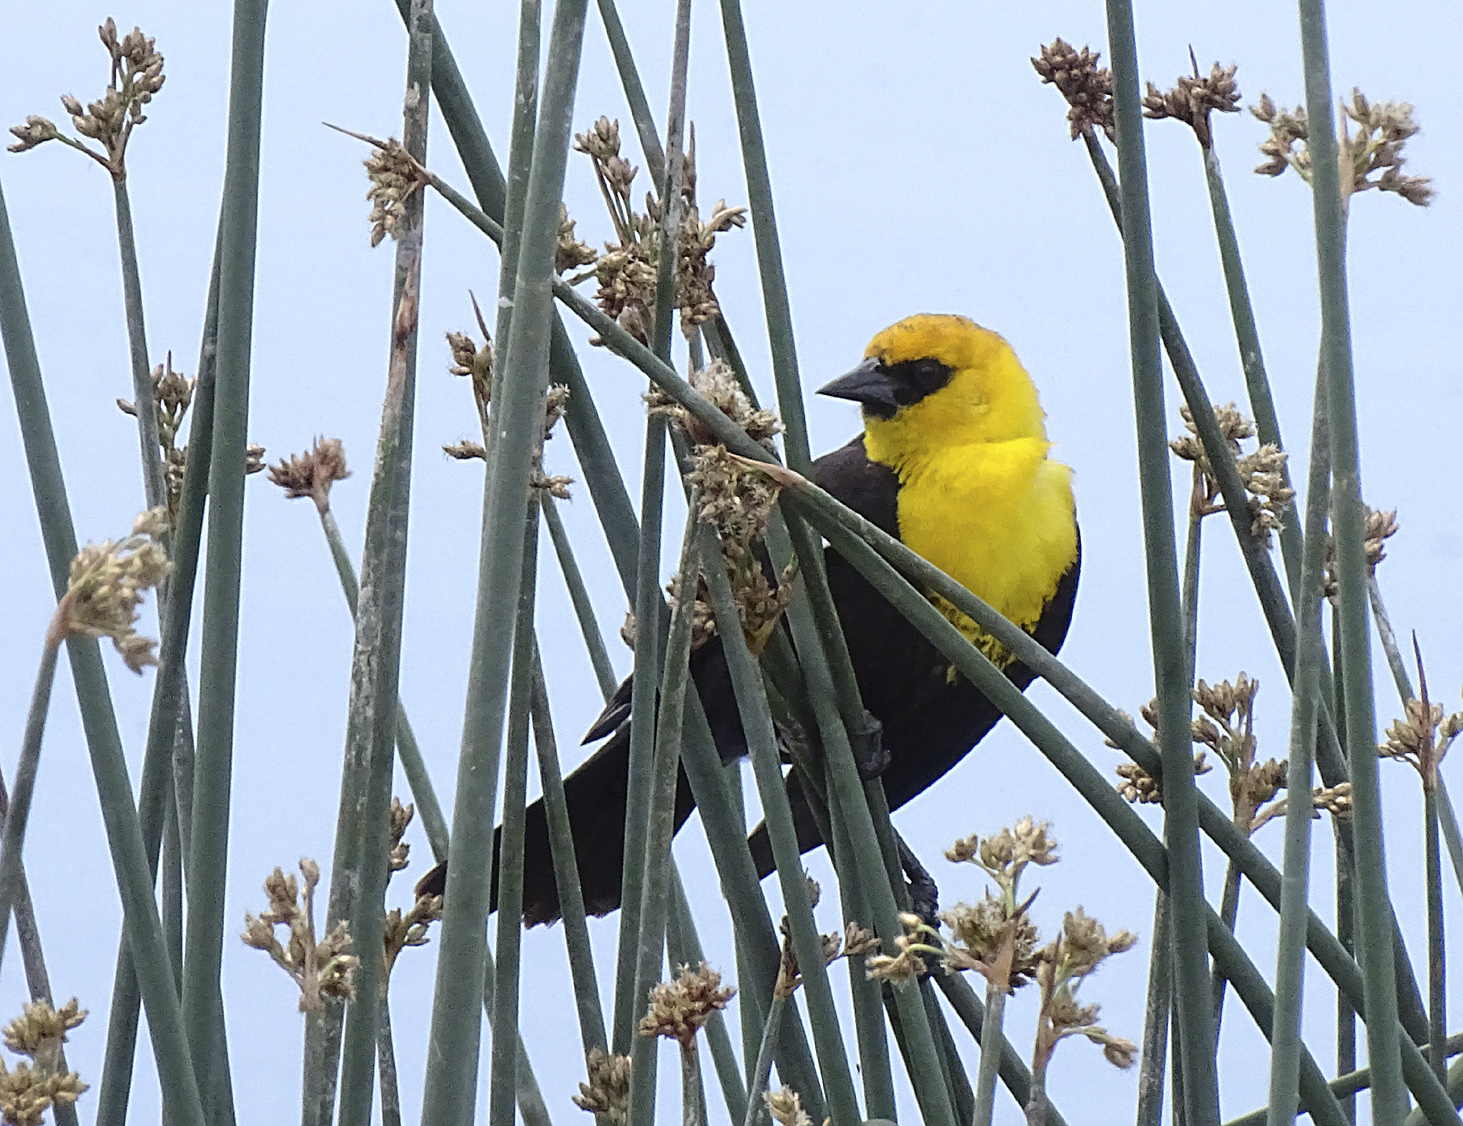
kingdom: Animalia
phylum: Chordata
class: Aves
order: Passeriformes
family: Icteridae
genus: Xanthocephalus
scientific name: Xanthocephalus xanthocephalus
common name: Yellow-headed blackbird
